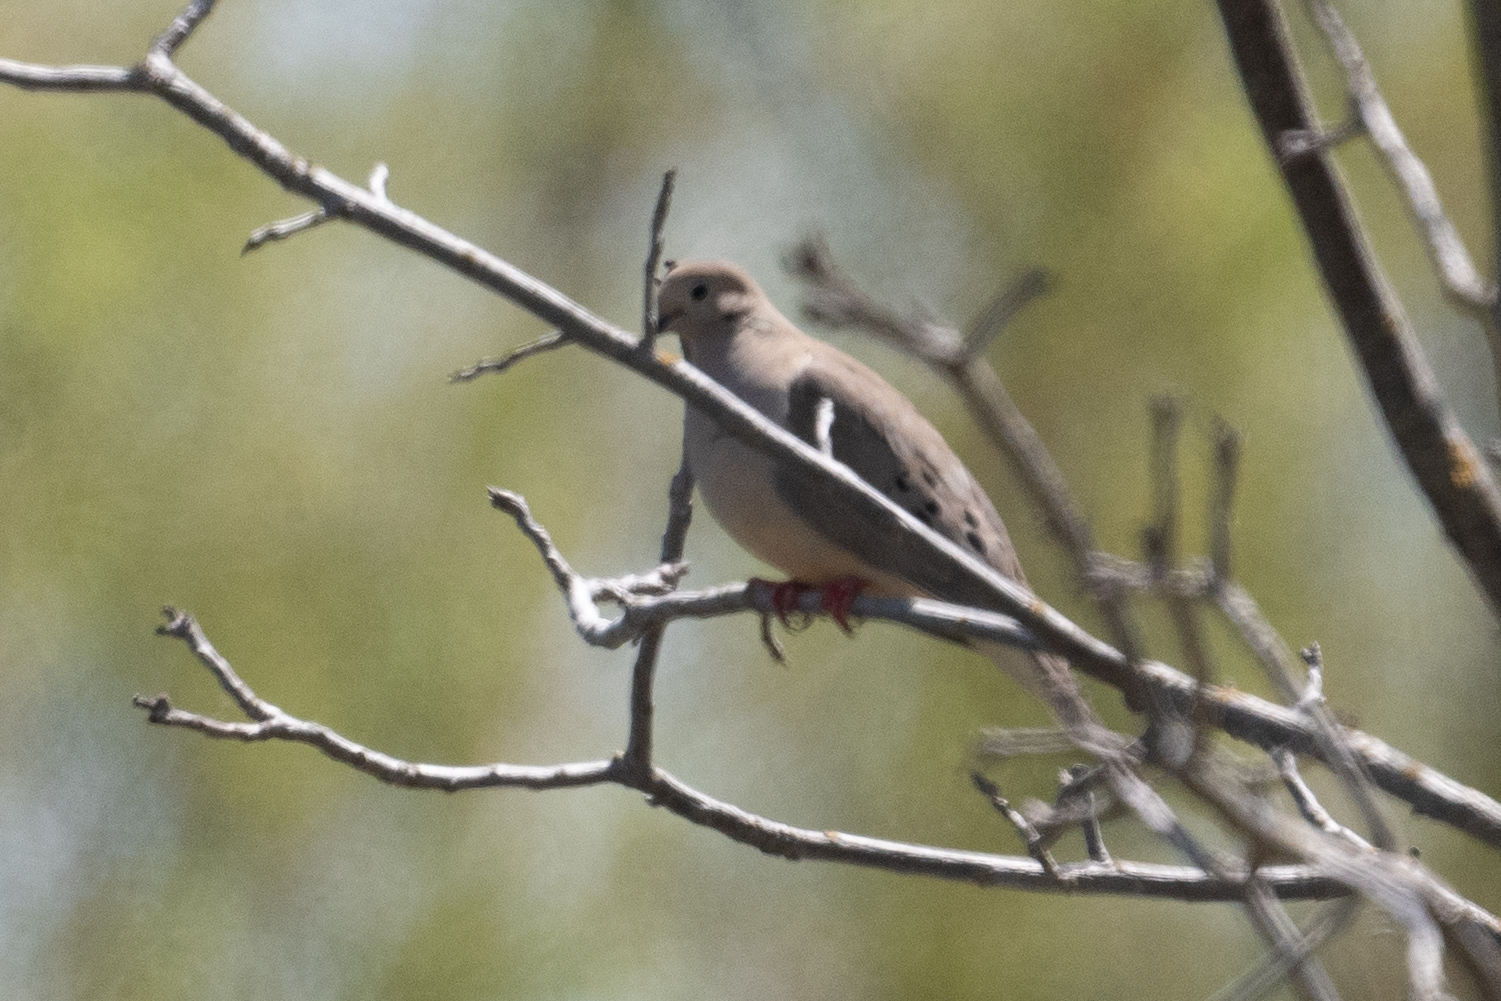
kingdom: Animalia
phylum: Chordata
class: Aves
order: Columbiformes
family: Columbidae
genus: Zenaida
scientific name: Zenaida macroura
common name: Mourning dove
